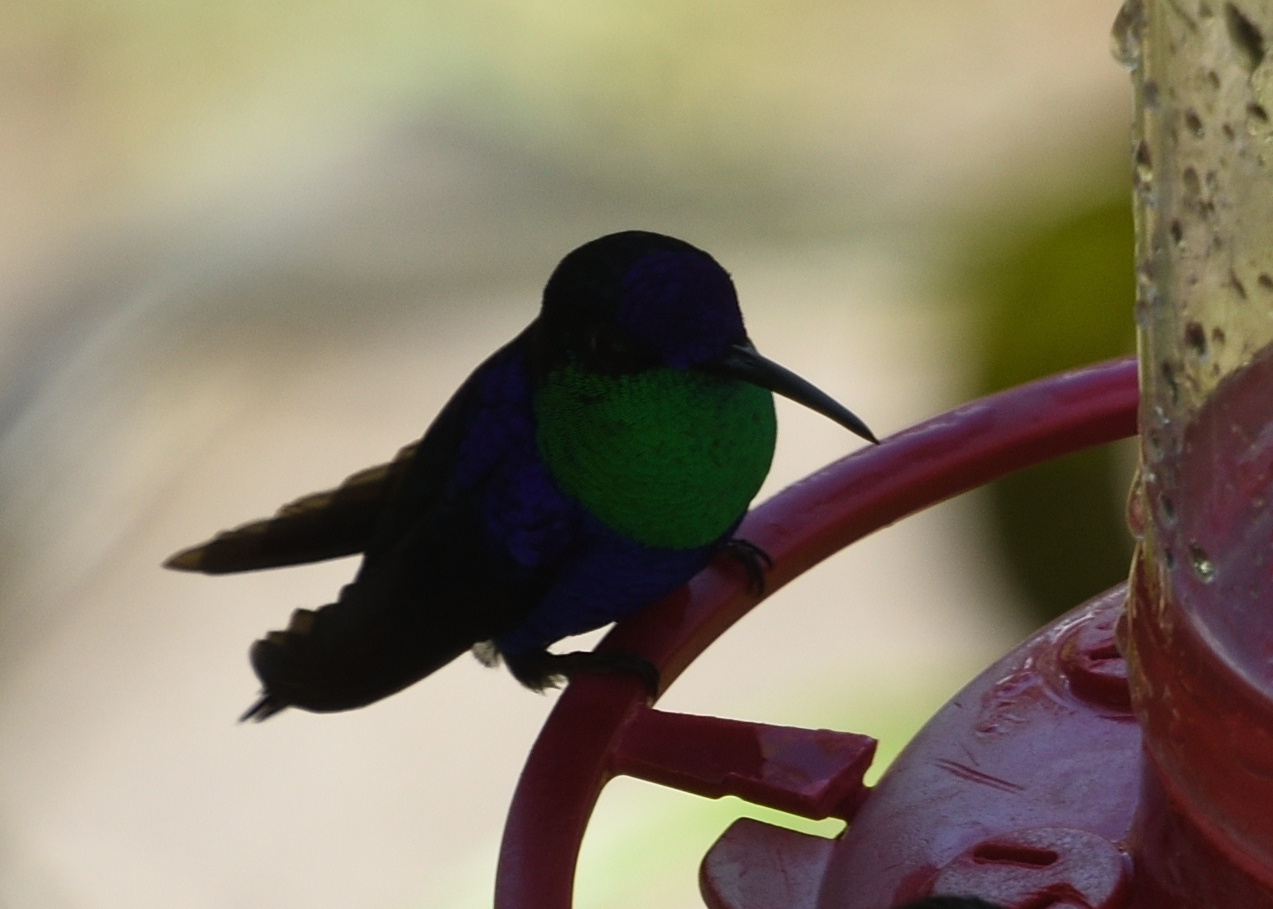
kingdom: Animalia
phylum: Chordata
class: Aves
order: Apodiformes
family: Trochilidae
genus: Thalurania
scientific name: Thalurania colombica
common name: Crowned woodnymph
